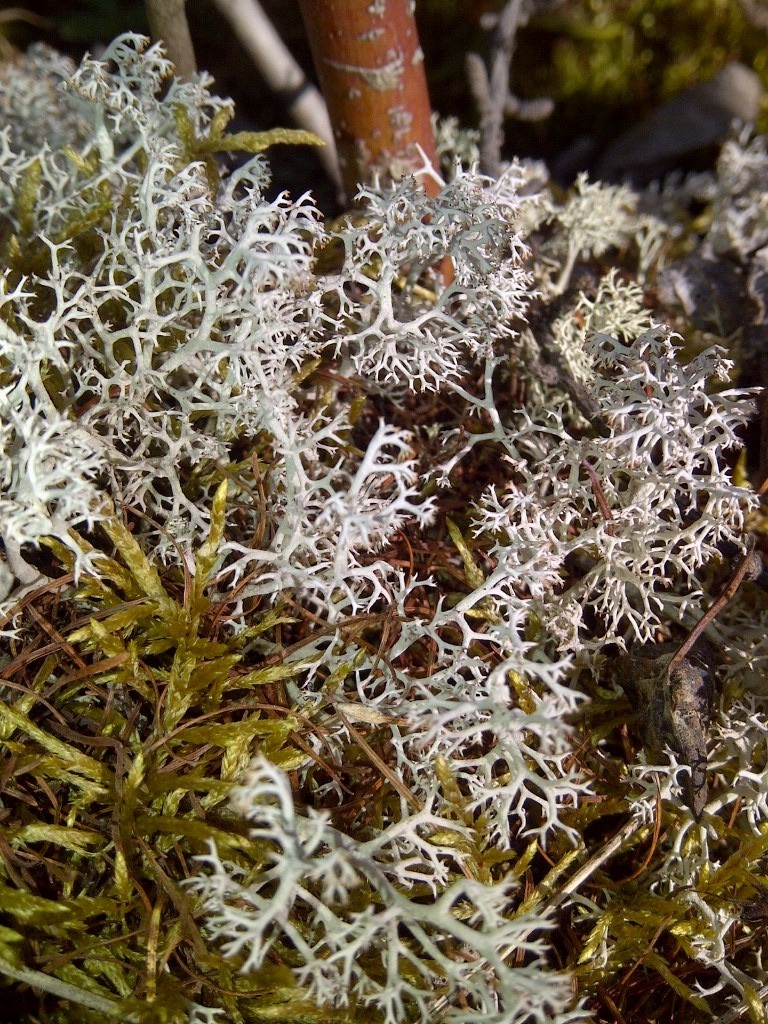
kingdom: Fungi
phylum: Ascomycota
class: Lecanoromycetes
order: Lecanorales
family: Cladoniaceae
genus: Cladonia
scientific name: Cladonia rangiferina
